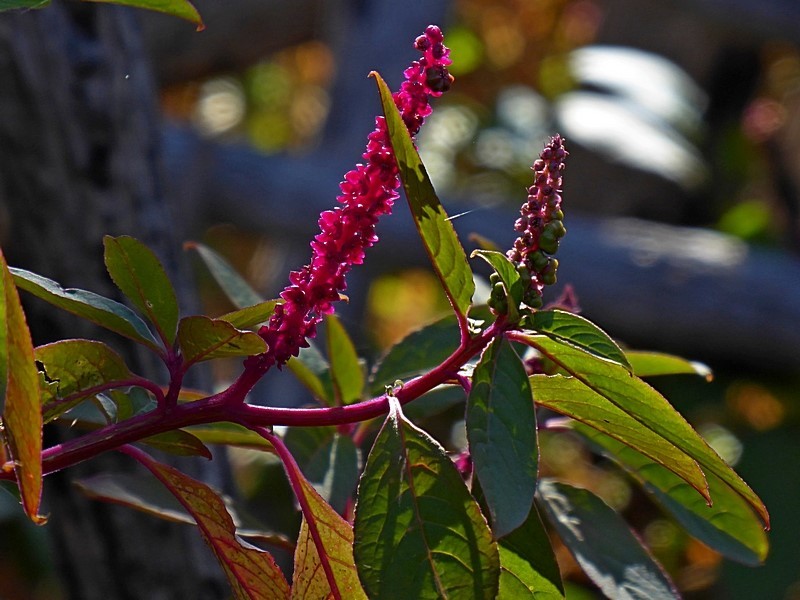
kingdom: Plantae
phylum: Tracheophyta
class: Magnoliopsida
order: Caryophyllales
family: Phytolaccaceae
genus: Phytolacca
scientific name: Phytolacca icosandra
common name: Button pokeweed
